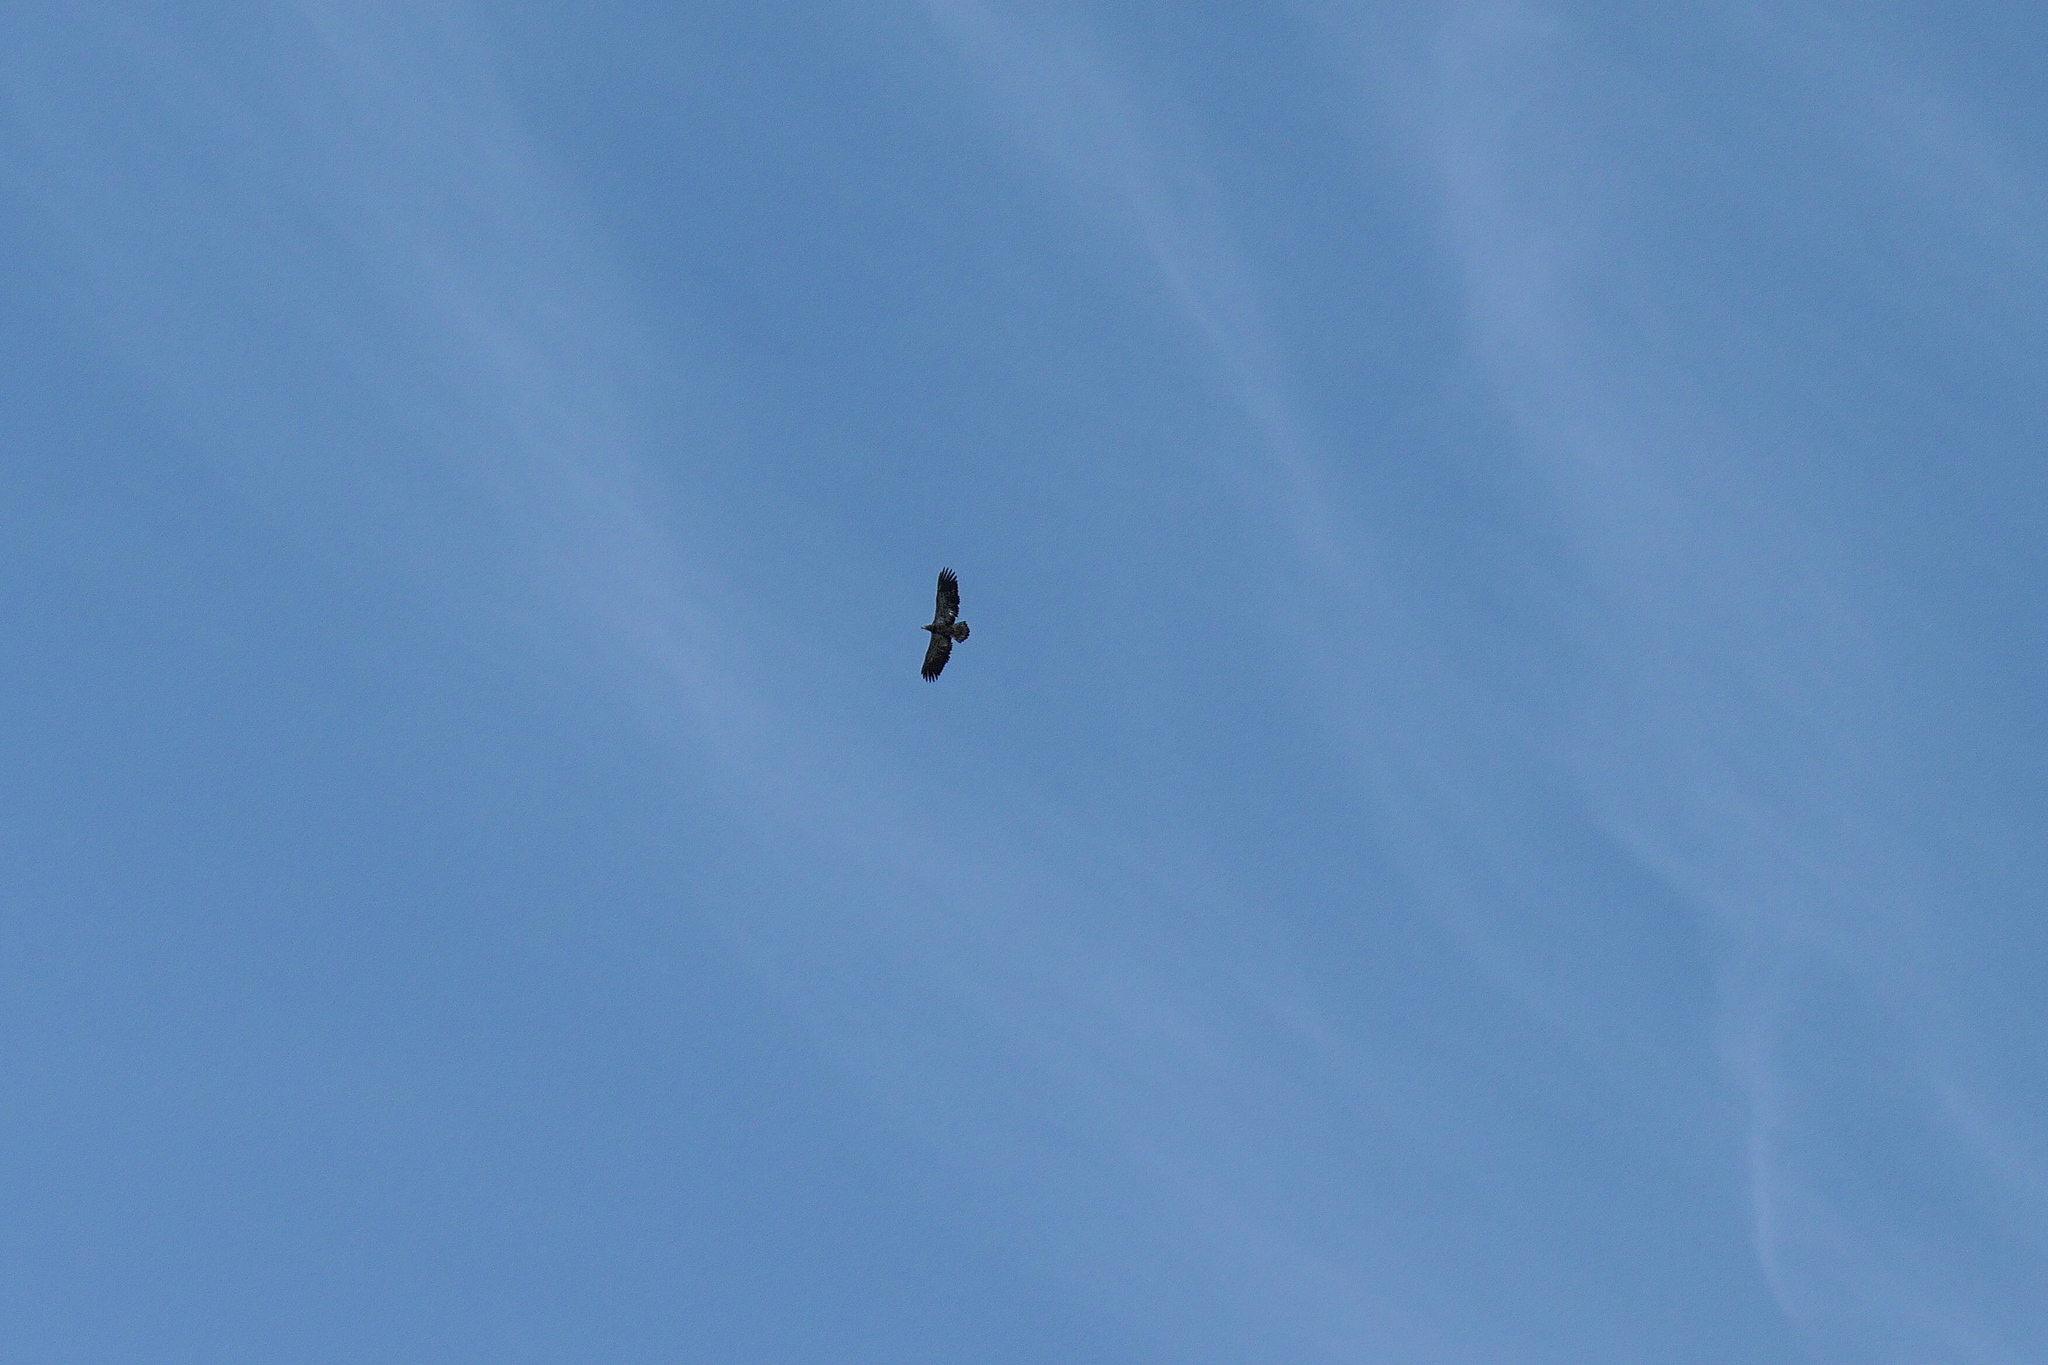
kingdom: Animalia
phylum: Chordata
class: Aves
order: Accipitriformes
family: Accipitridae
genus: Haliaeetus
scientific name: Haliaeetus leucocephalus
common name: Bald eagle
